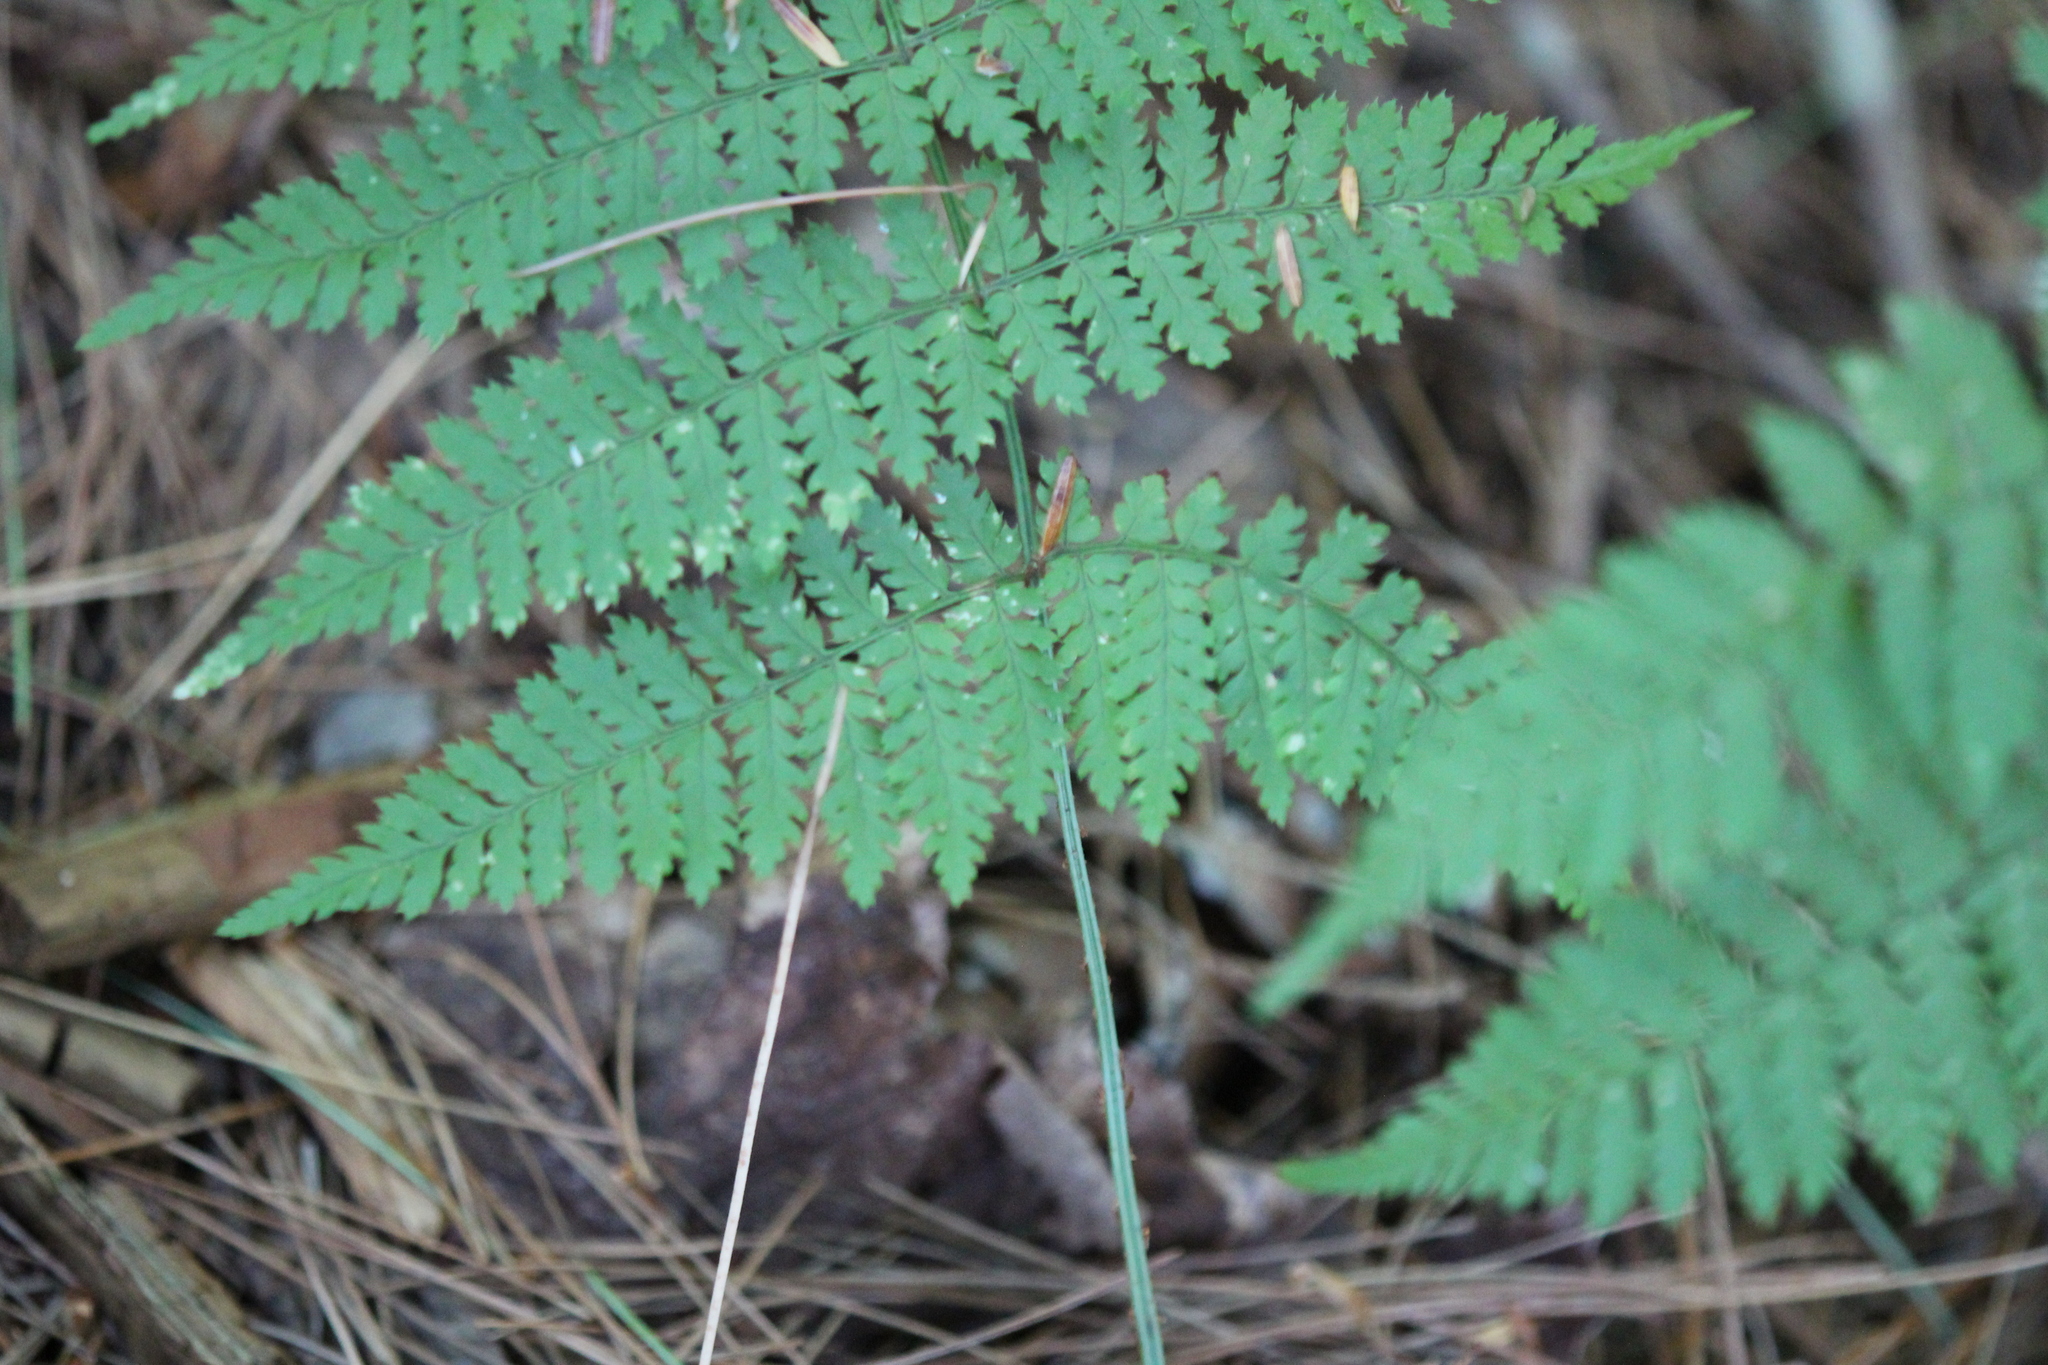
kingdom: Plantae
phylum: Tracheophyta
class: Polypodiopsida
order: Polypodiales
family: Dryopteridaceae
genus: Dryopteris
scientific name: Dryopteris intermedia
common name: Evergreen wood fern
